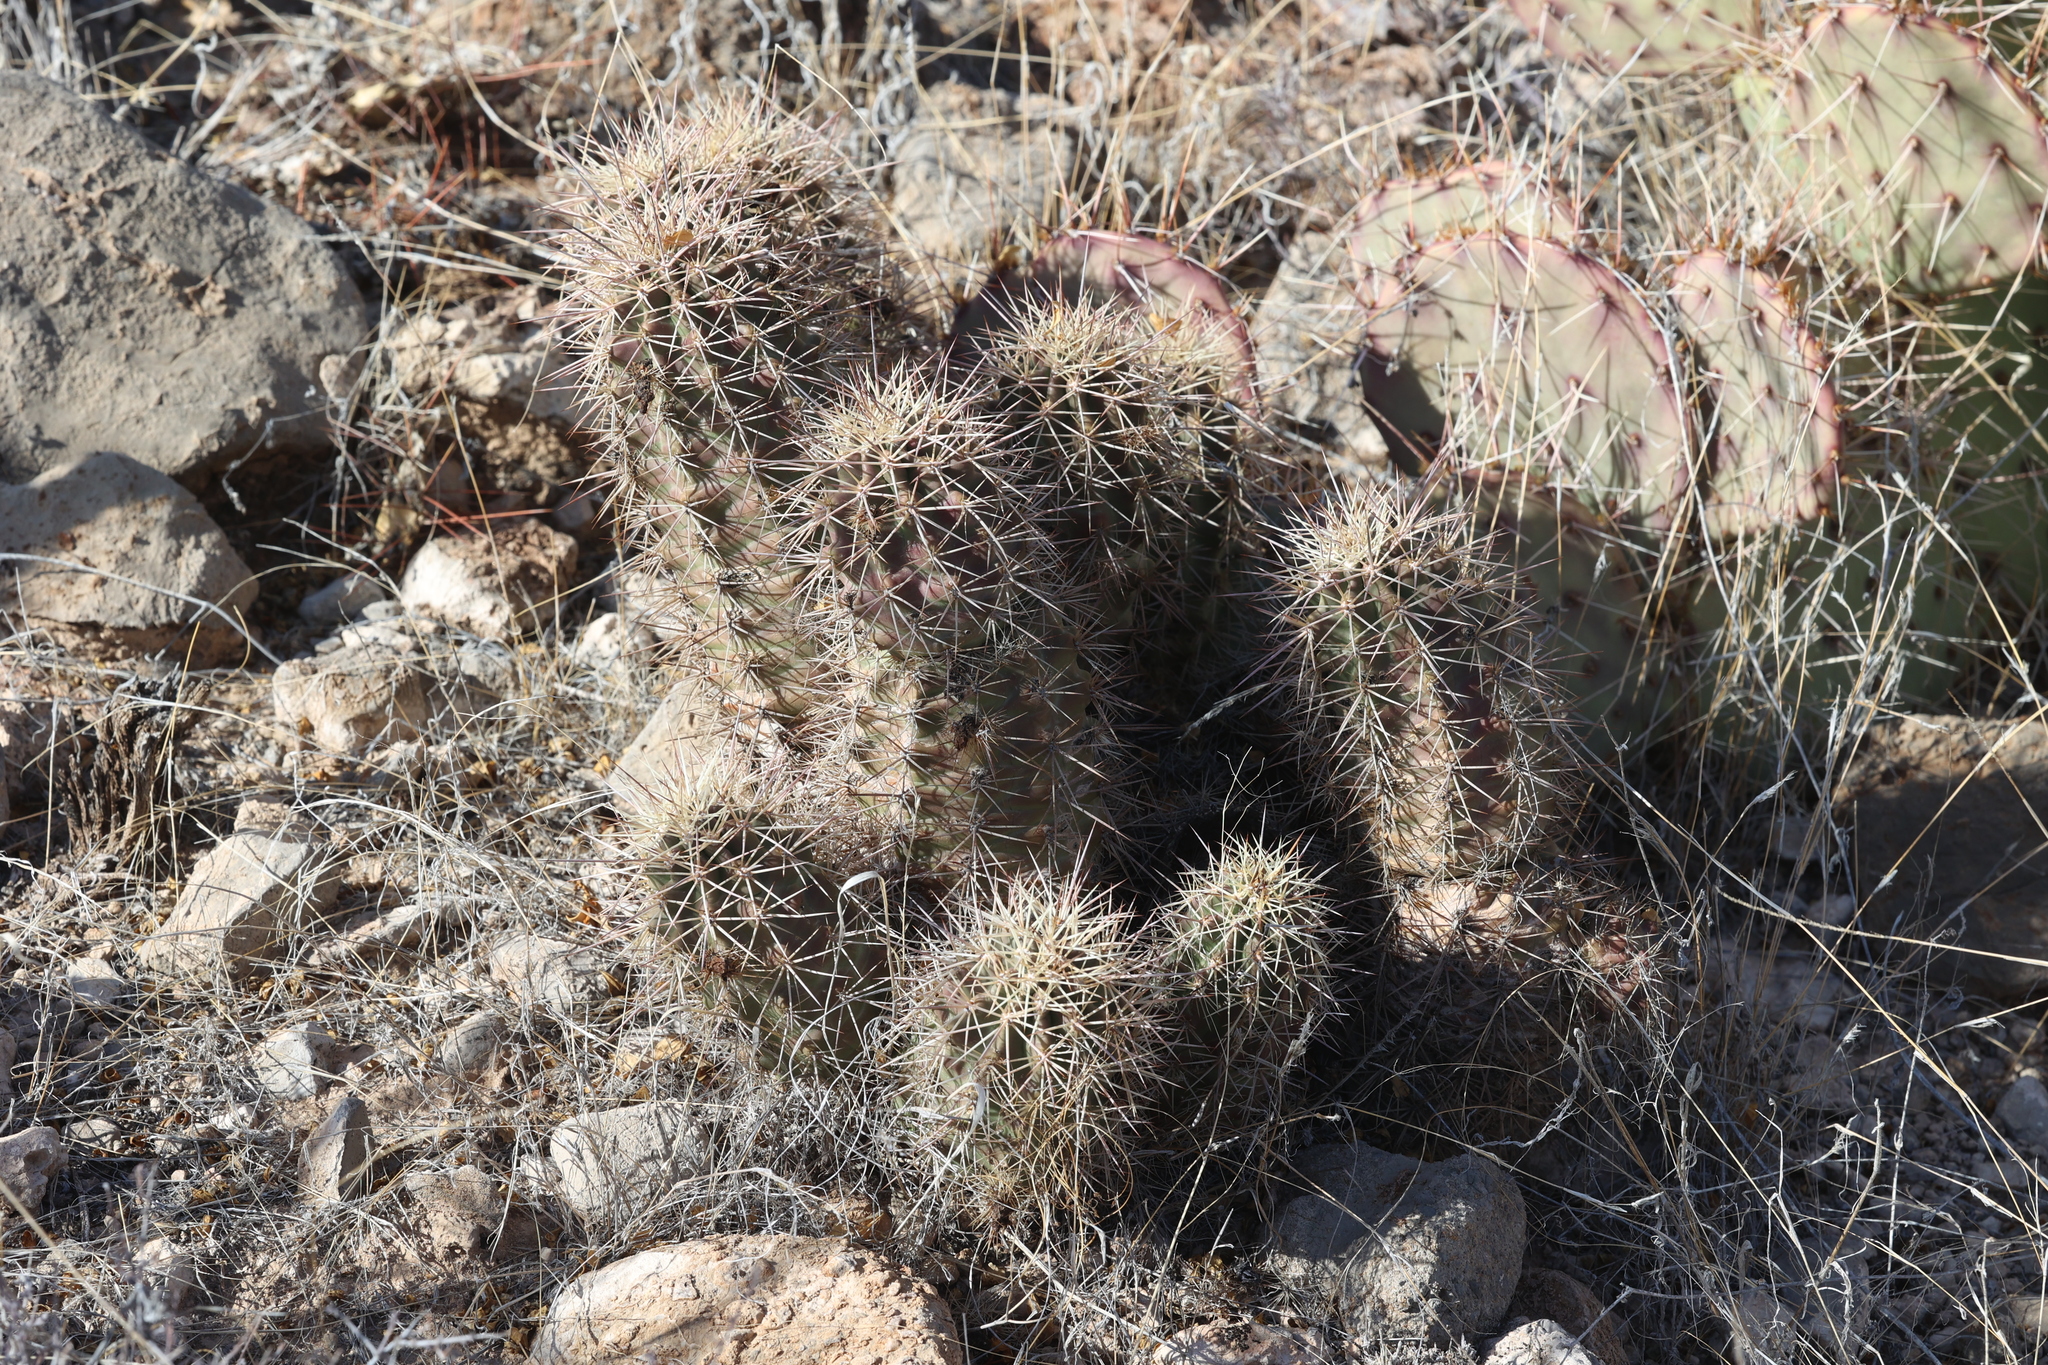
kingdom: Plantae
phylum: Tracheophyta
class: Magnoliopsida
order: Caryophyllales
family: Cactaceae
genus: Echinocereus
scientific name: Echinocereus coccineus
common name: Scarlet hedgehog cactus
